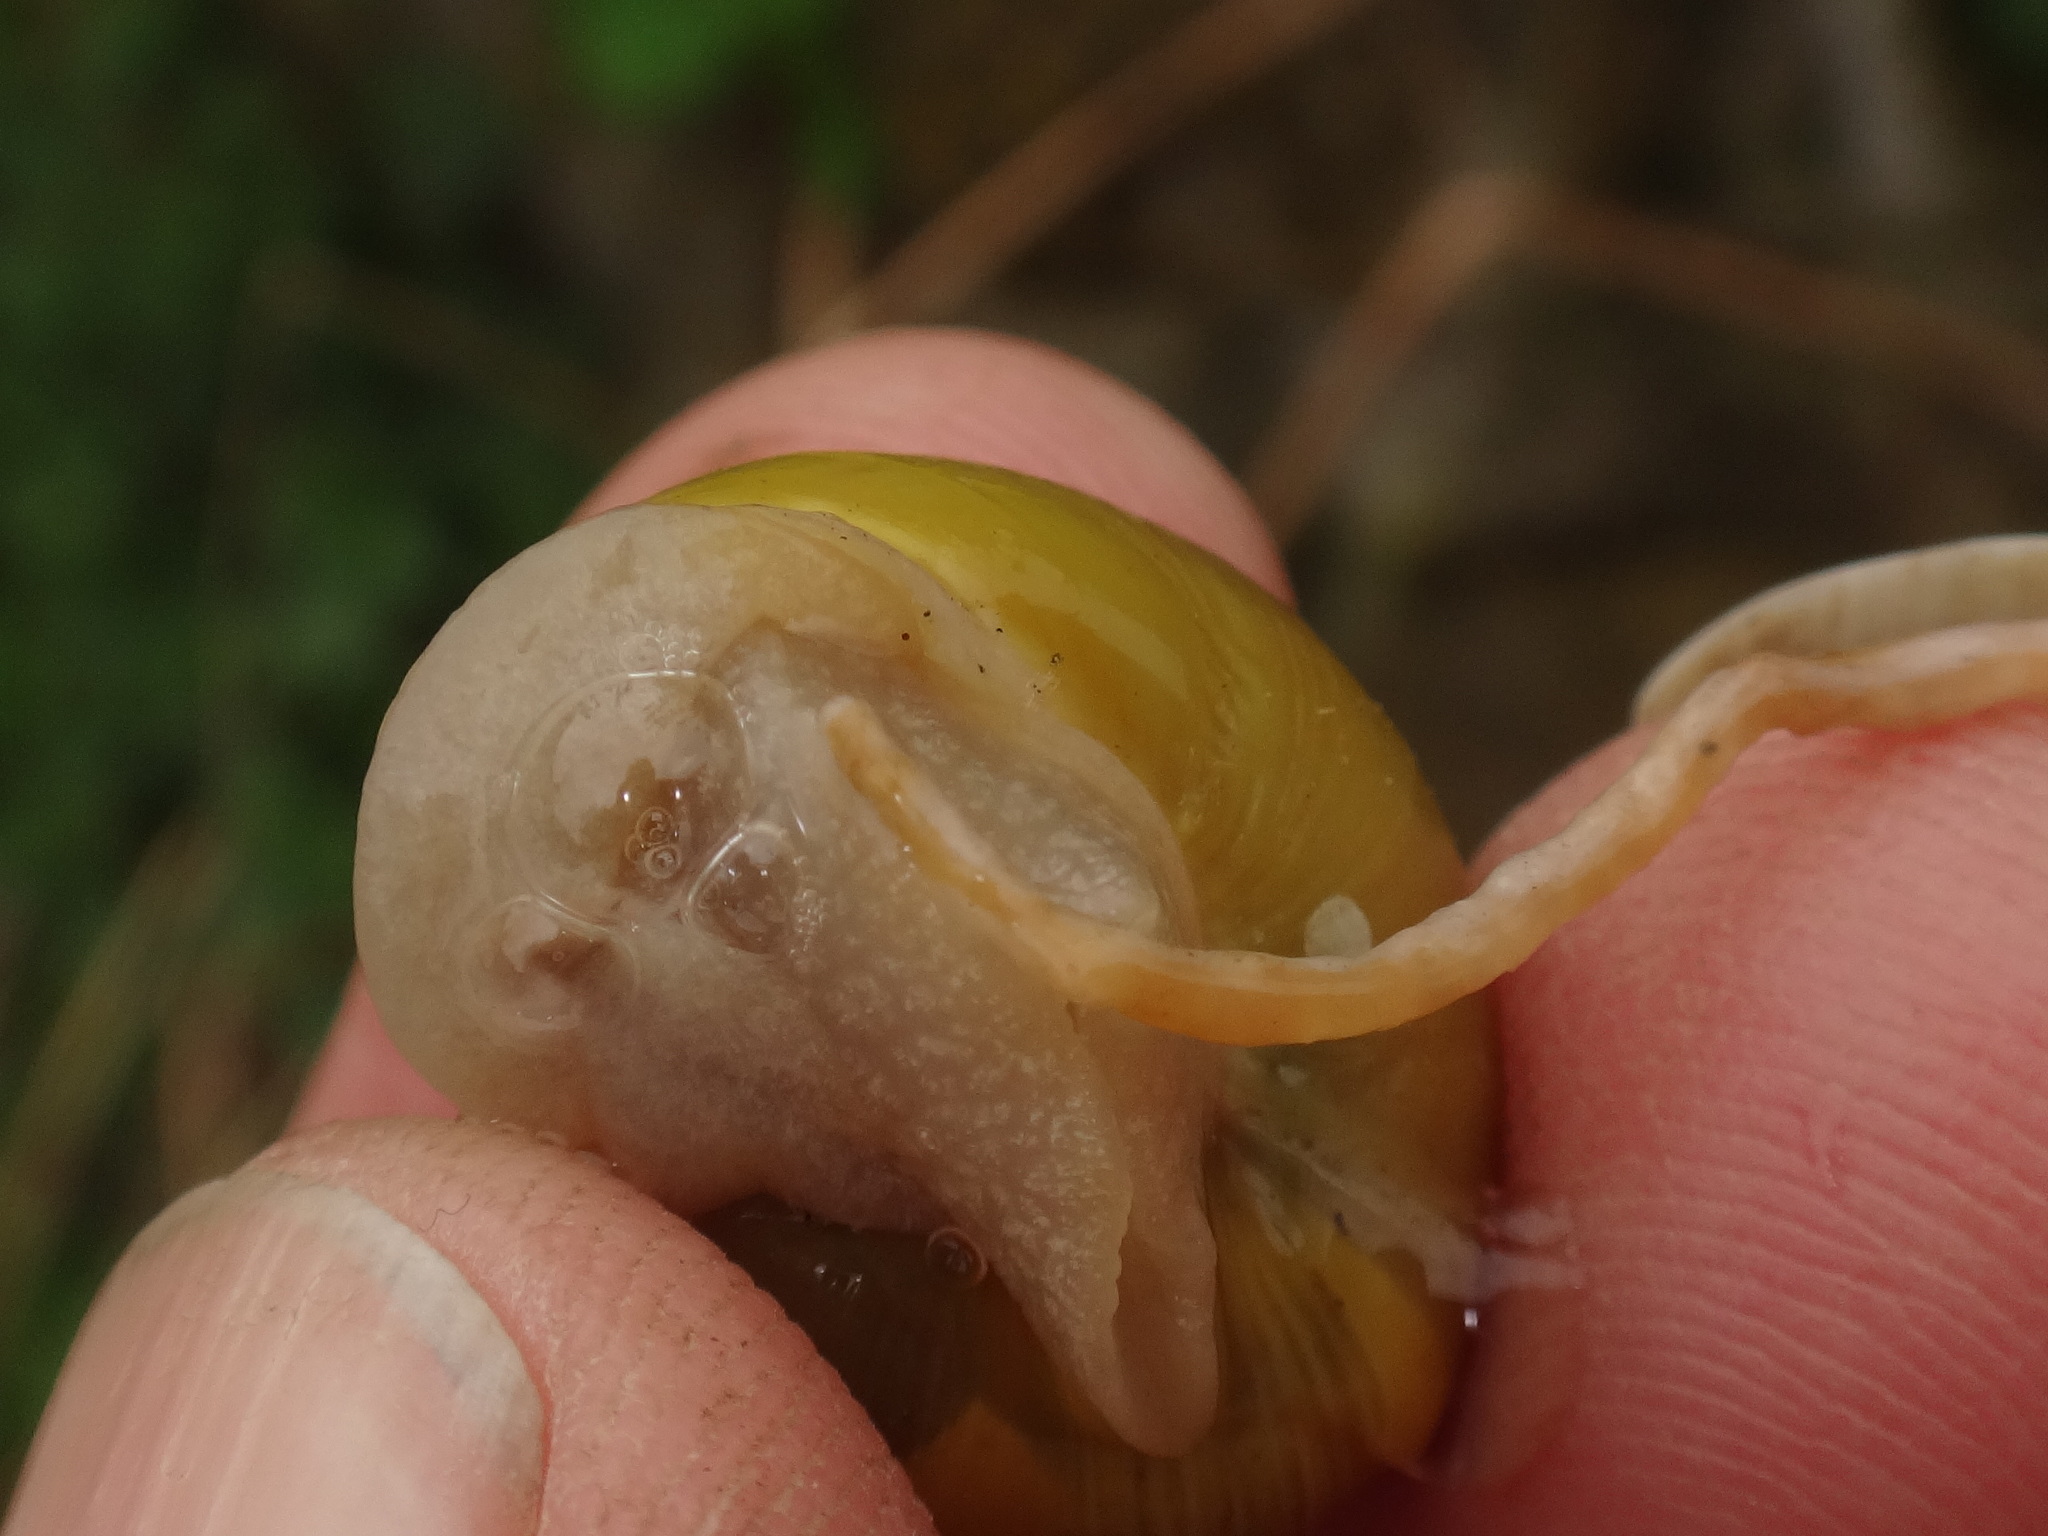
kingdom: Animalia
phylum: Mollusca
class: Gastropoda
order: Stylommatophora
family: Helicidae
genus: Cepaea
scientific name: Cepaea hortensis
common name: White-lip gardensnail
